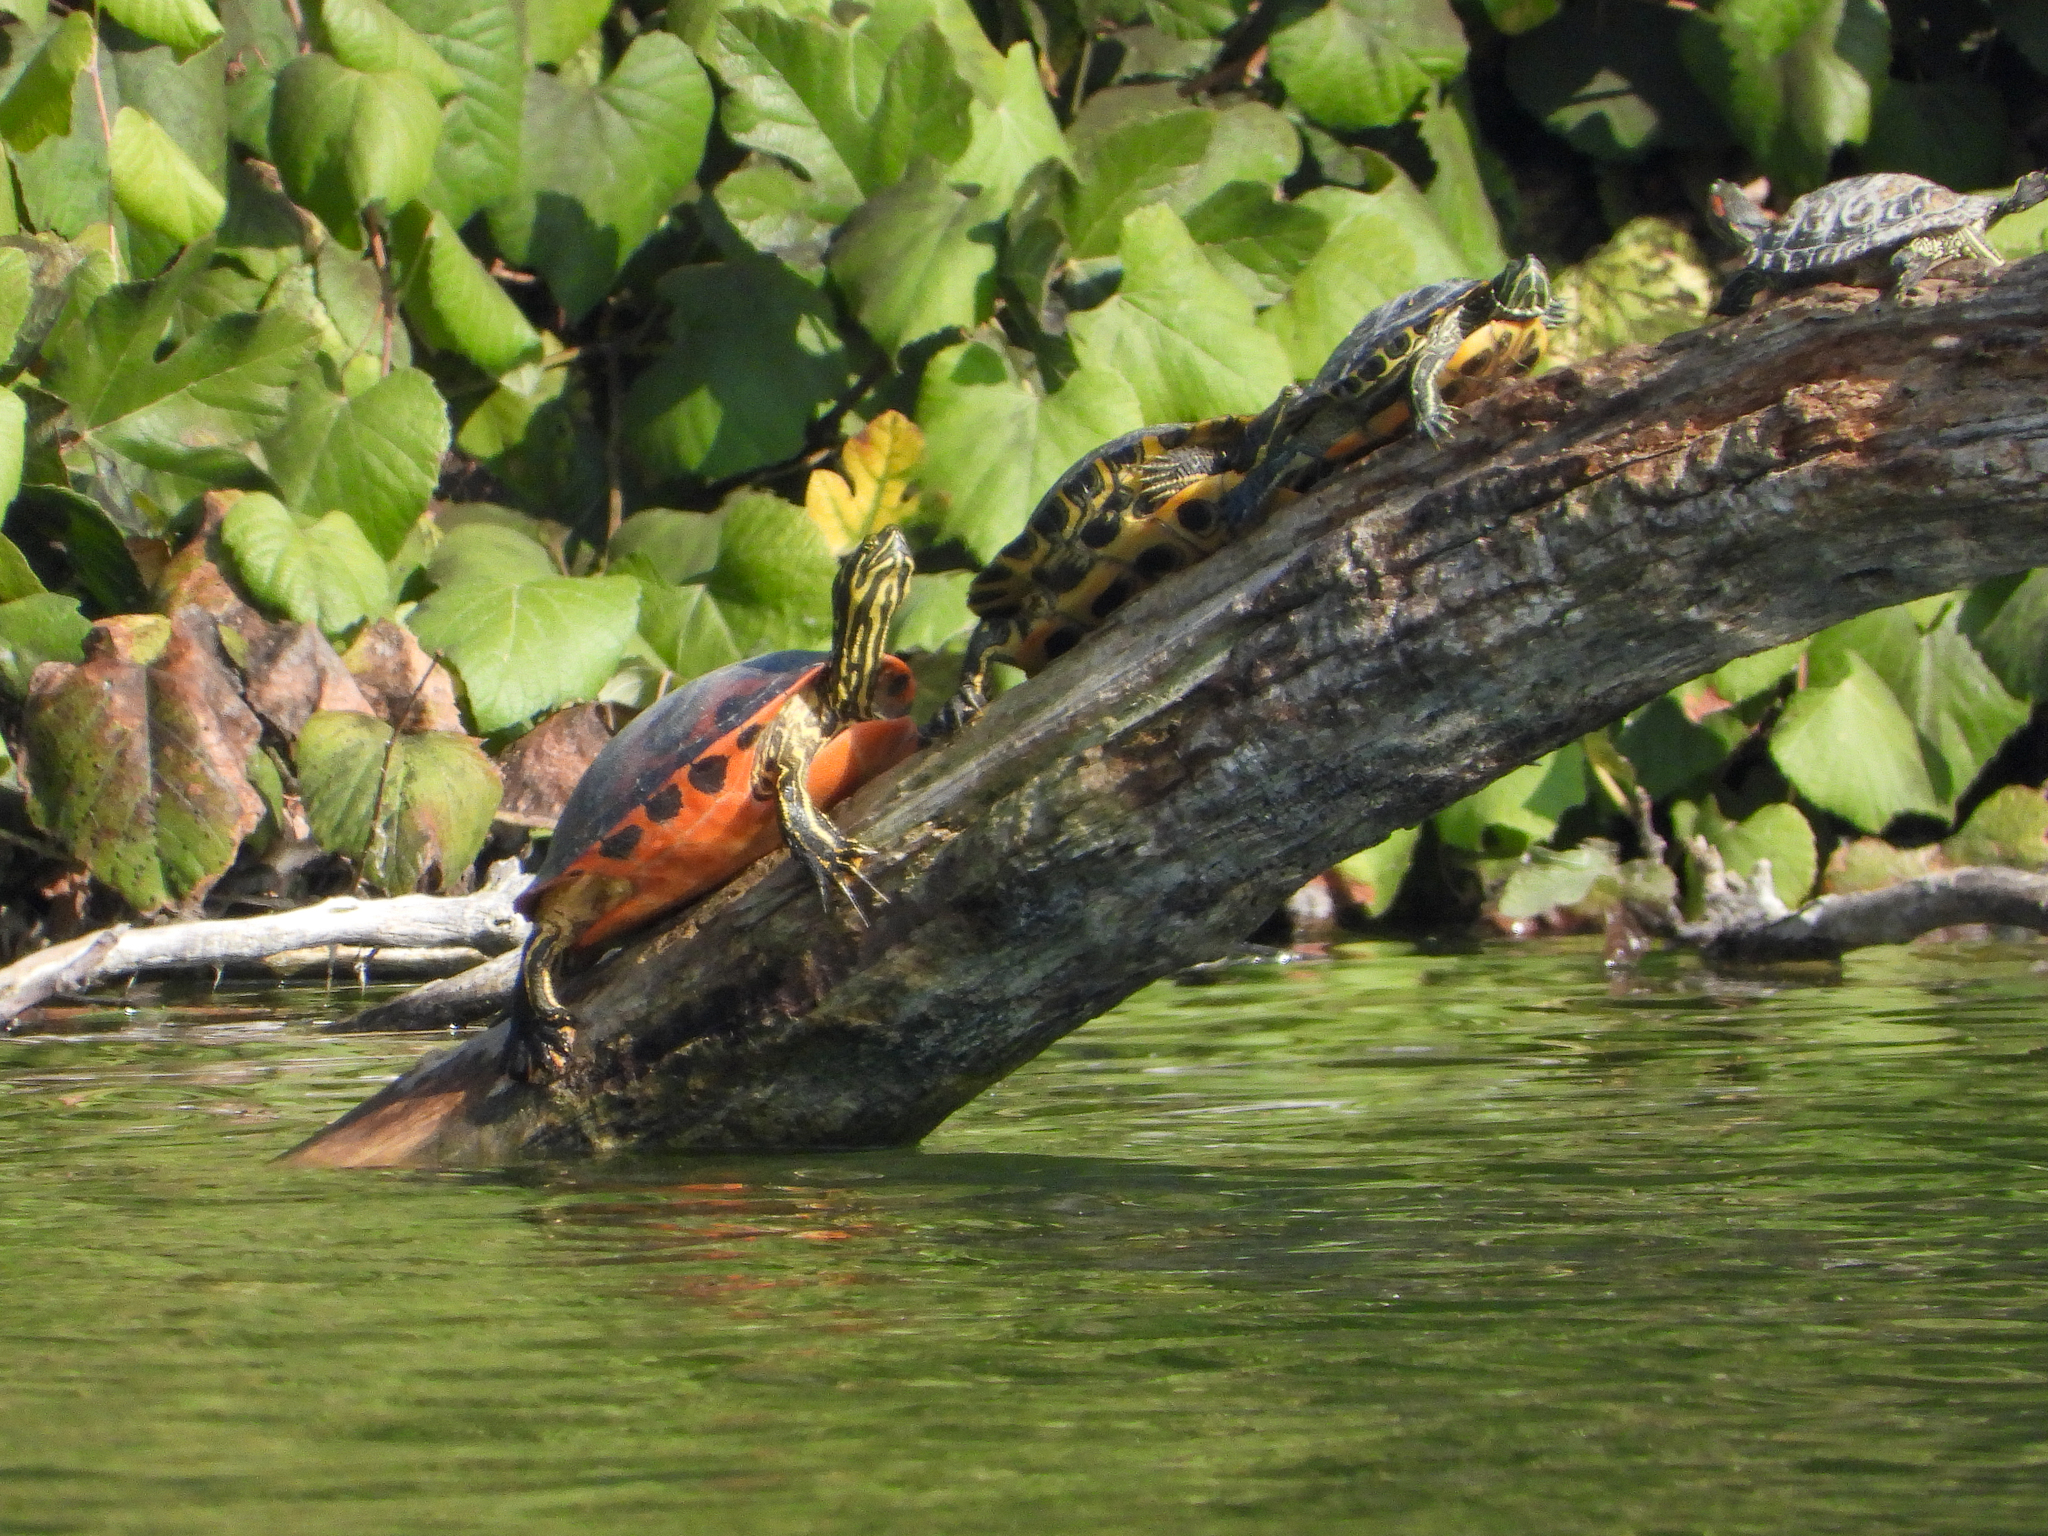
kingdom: Animalia
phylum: Chordata
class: Testudines
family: Emydidae
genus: Pseudemys
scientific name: Pseudemys nelsoni
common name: Florida red-bellied turtle
